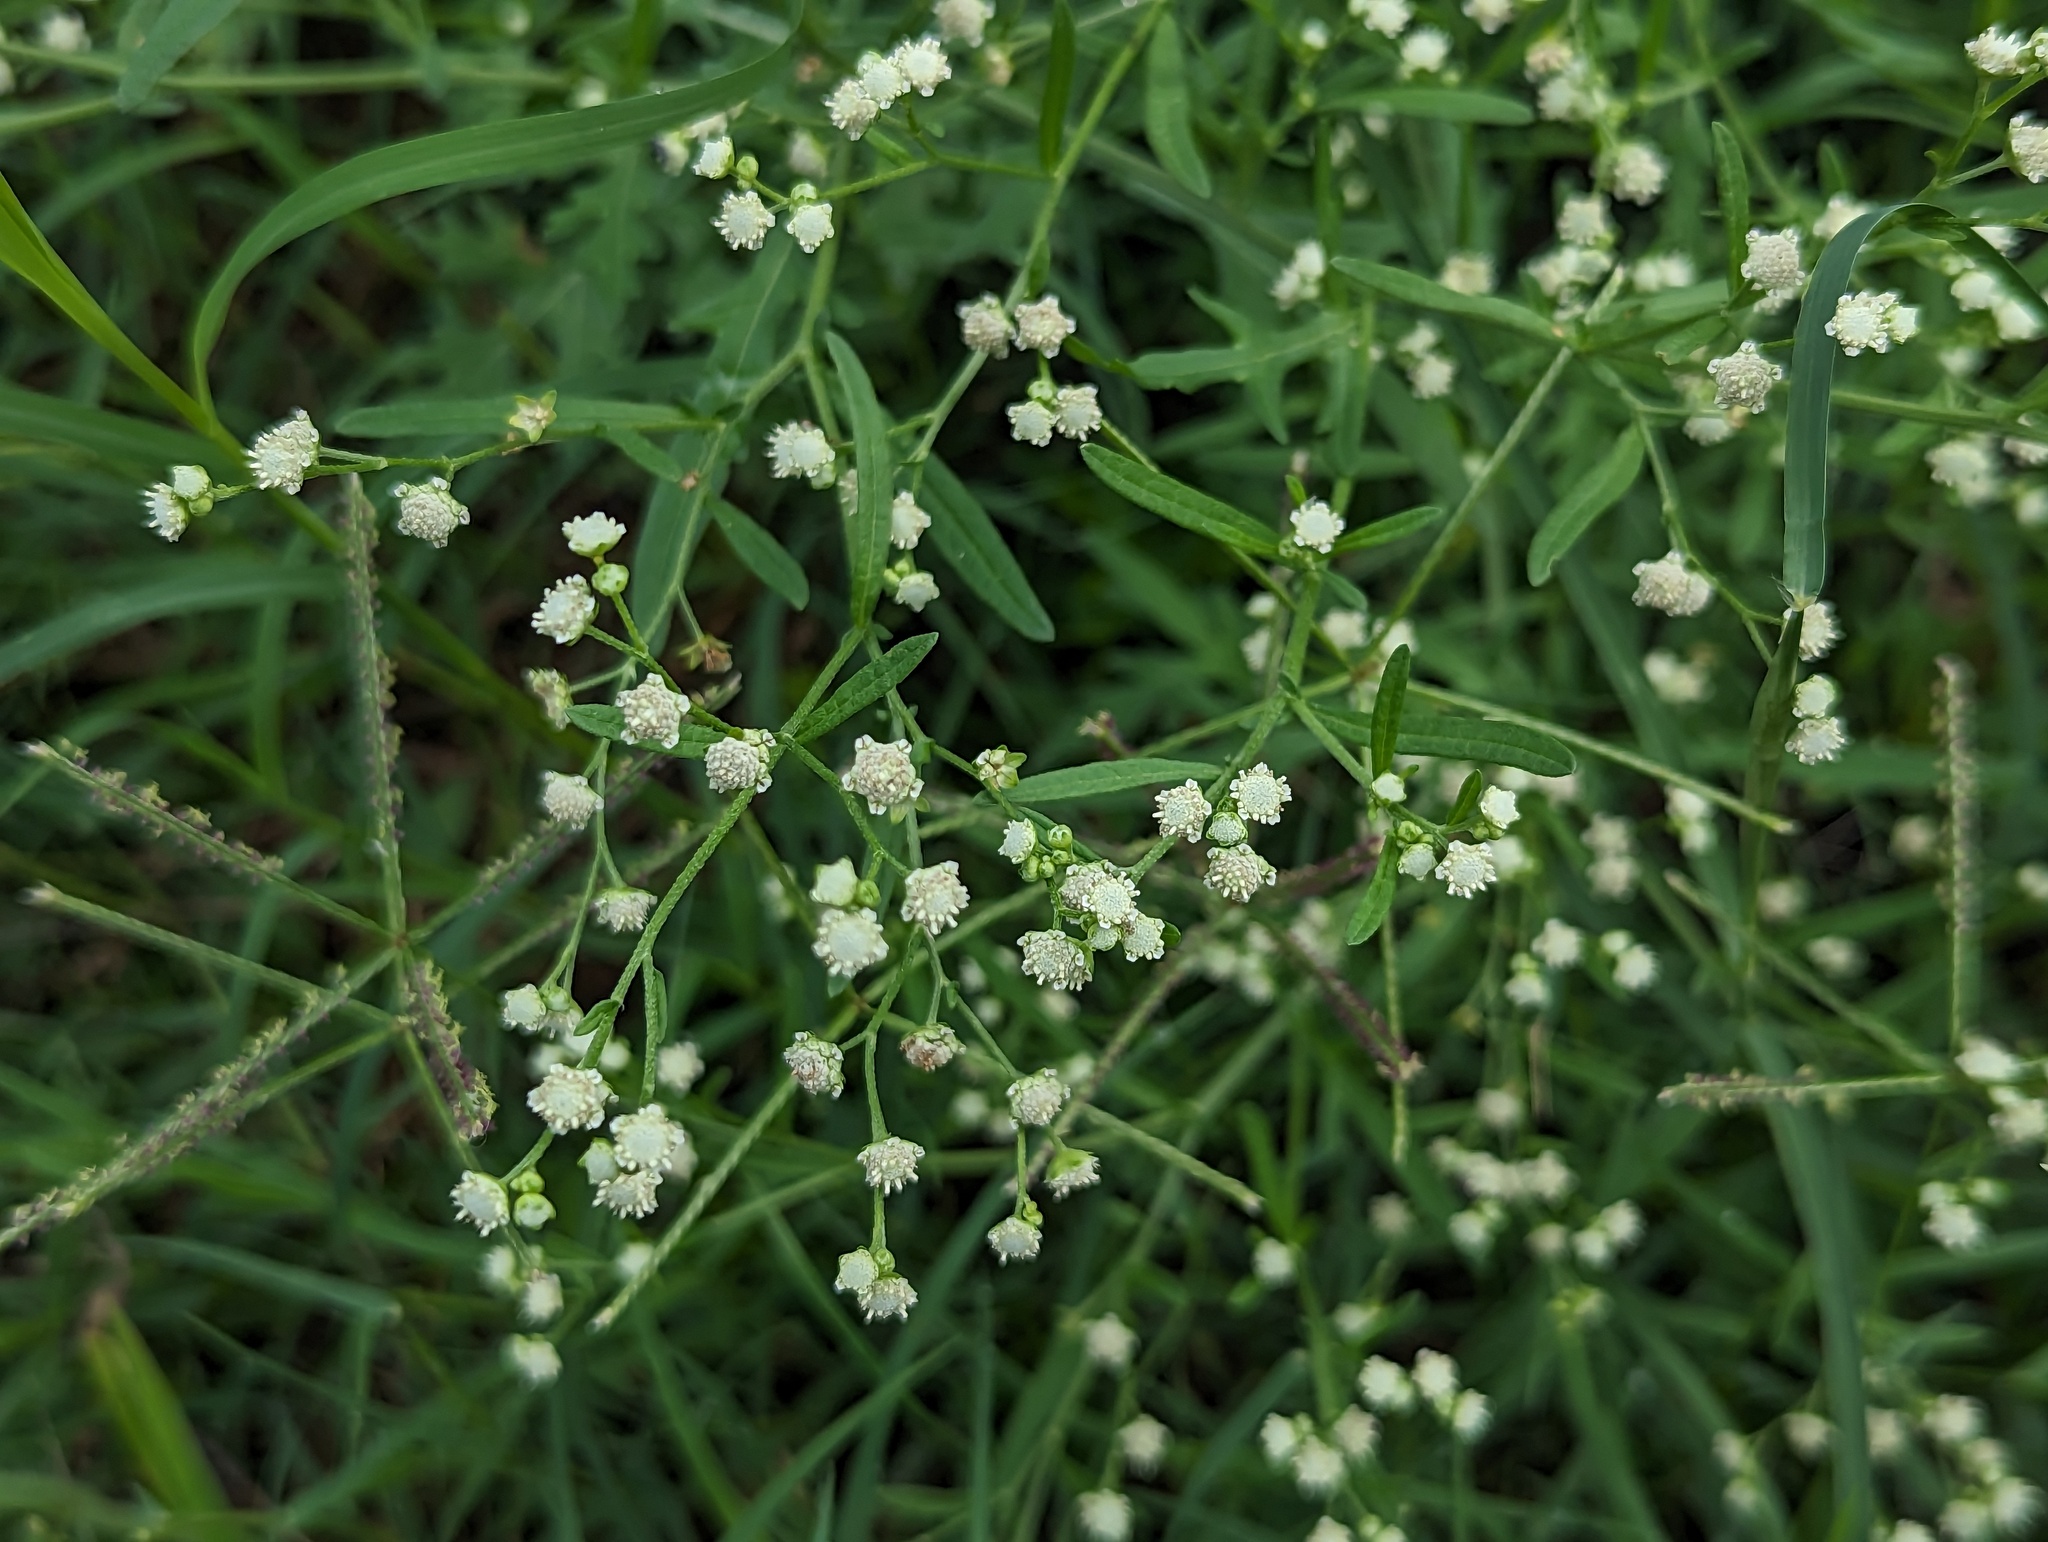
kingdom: Plantae
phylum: Tracheophyta
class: Magnoliopsida
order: Asterales
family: Asteraceae
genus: Parthenium
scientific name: Parthenium hysterophorus
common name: Santa maria feverfew
